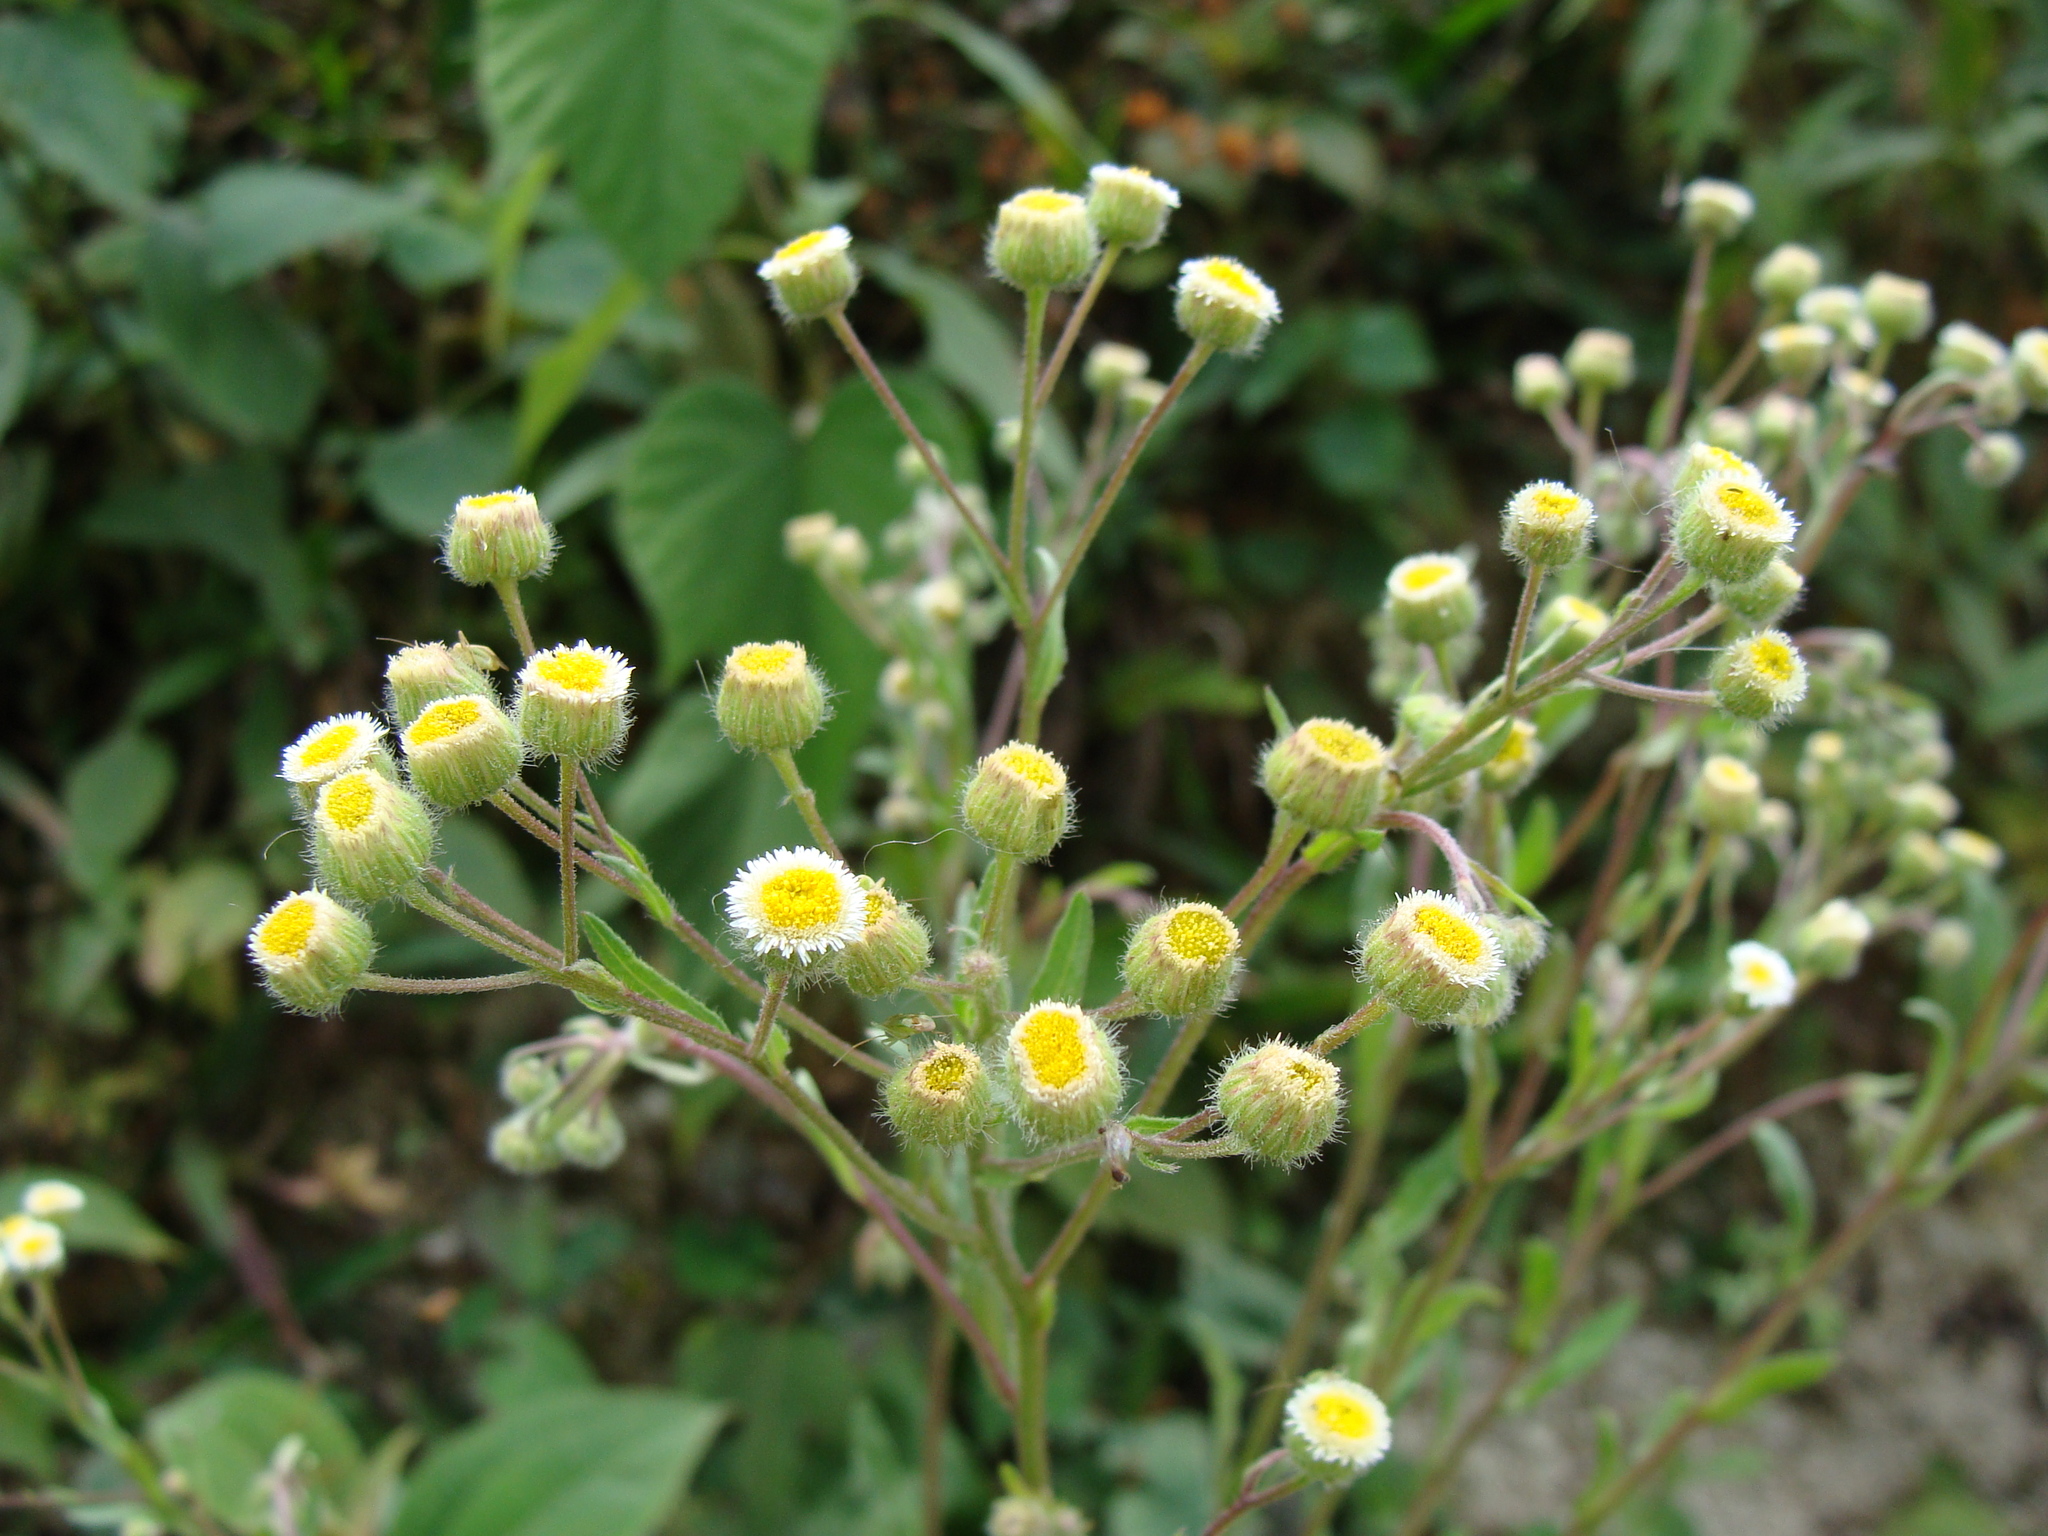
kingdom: Plantae
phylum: Tracheophyta
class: Magnoliopsida
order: Asterales
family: Asteraceae
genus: Erigeron
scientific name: Erigeron laevigatus
